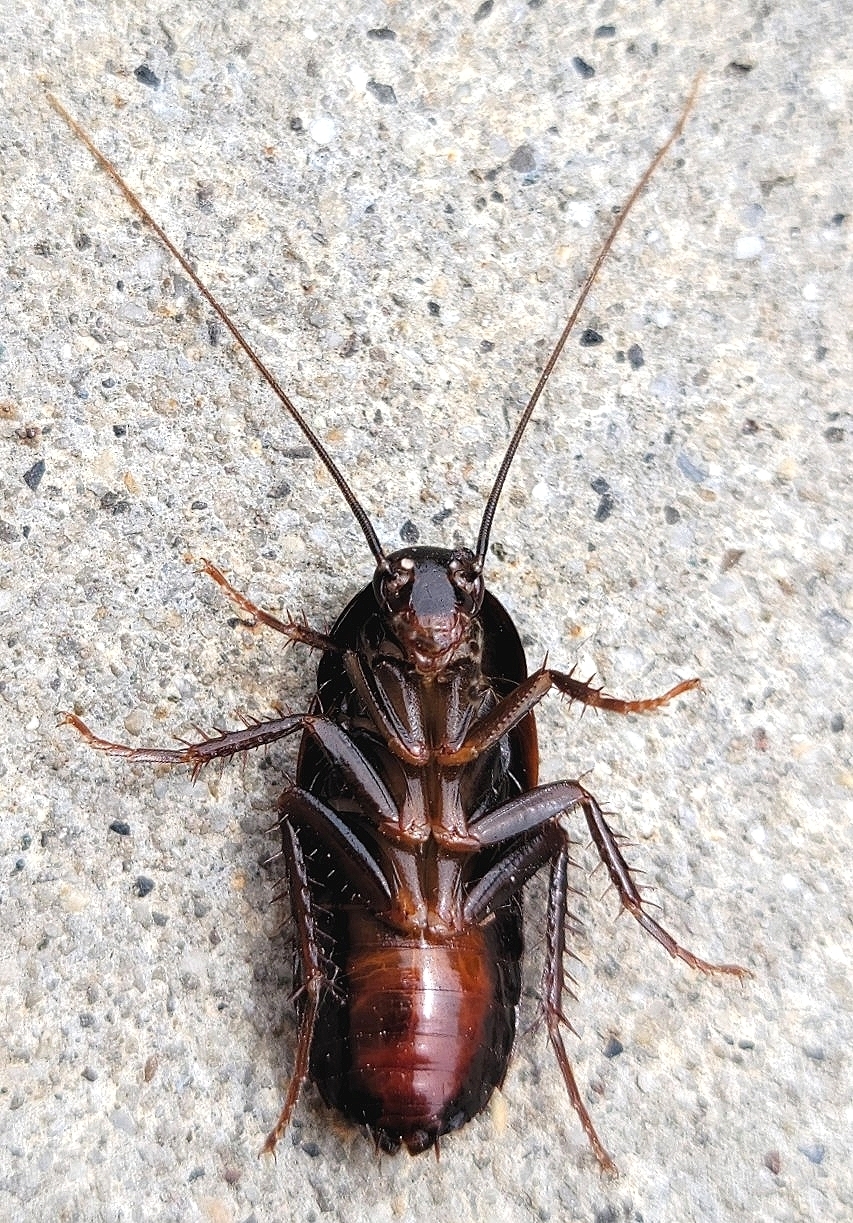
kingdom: Animalia
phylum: Arthropoda
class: Insecta
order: Blattodea
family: Blattidae
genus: Blatta
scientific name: Blatta orientalis
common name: Oriental cockroach
